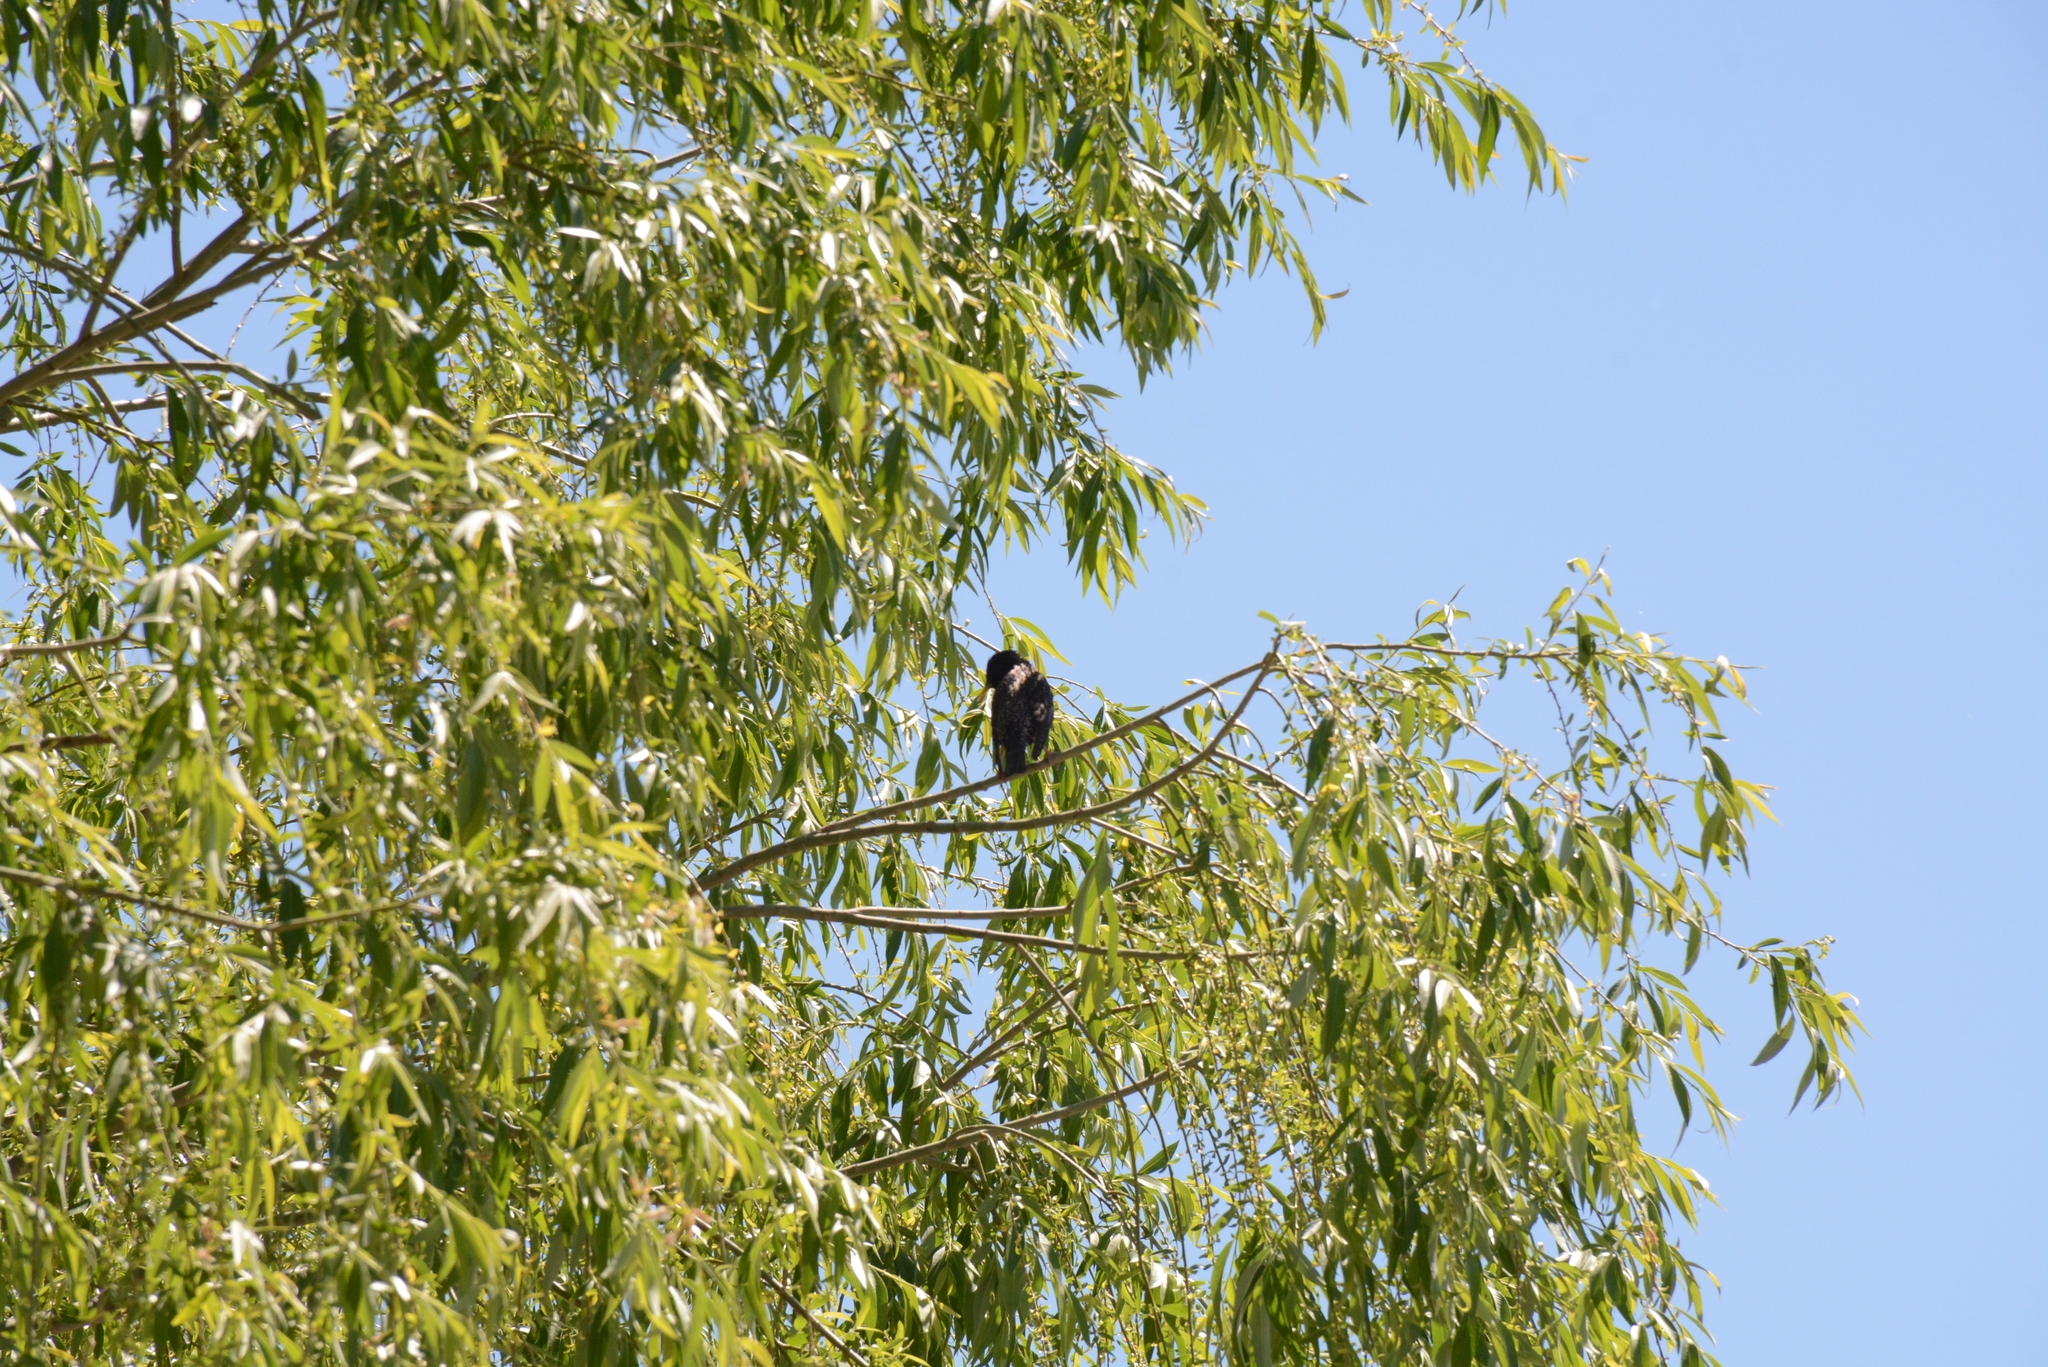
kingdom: Animalia
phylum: Chordata
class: Aves
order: Passeriformes
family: Sturnidae
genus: Sturnus
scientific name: Sturnus vulgaris
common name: Common starling
